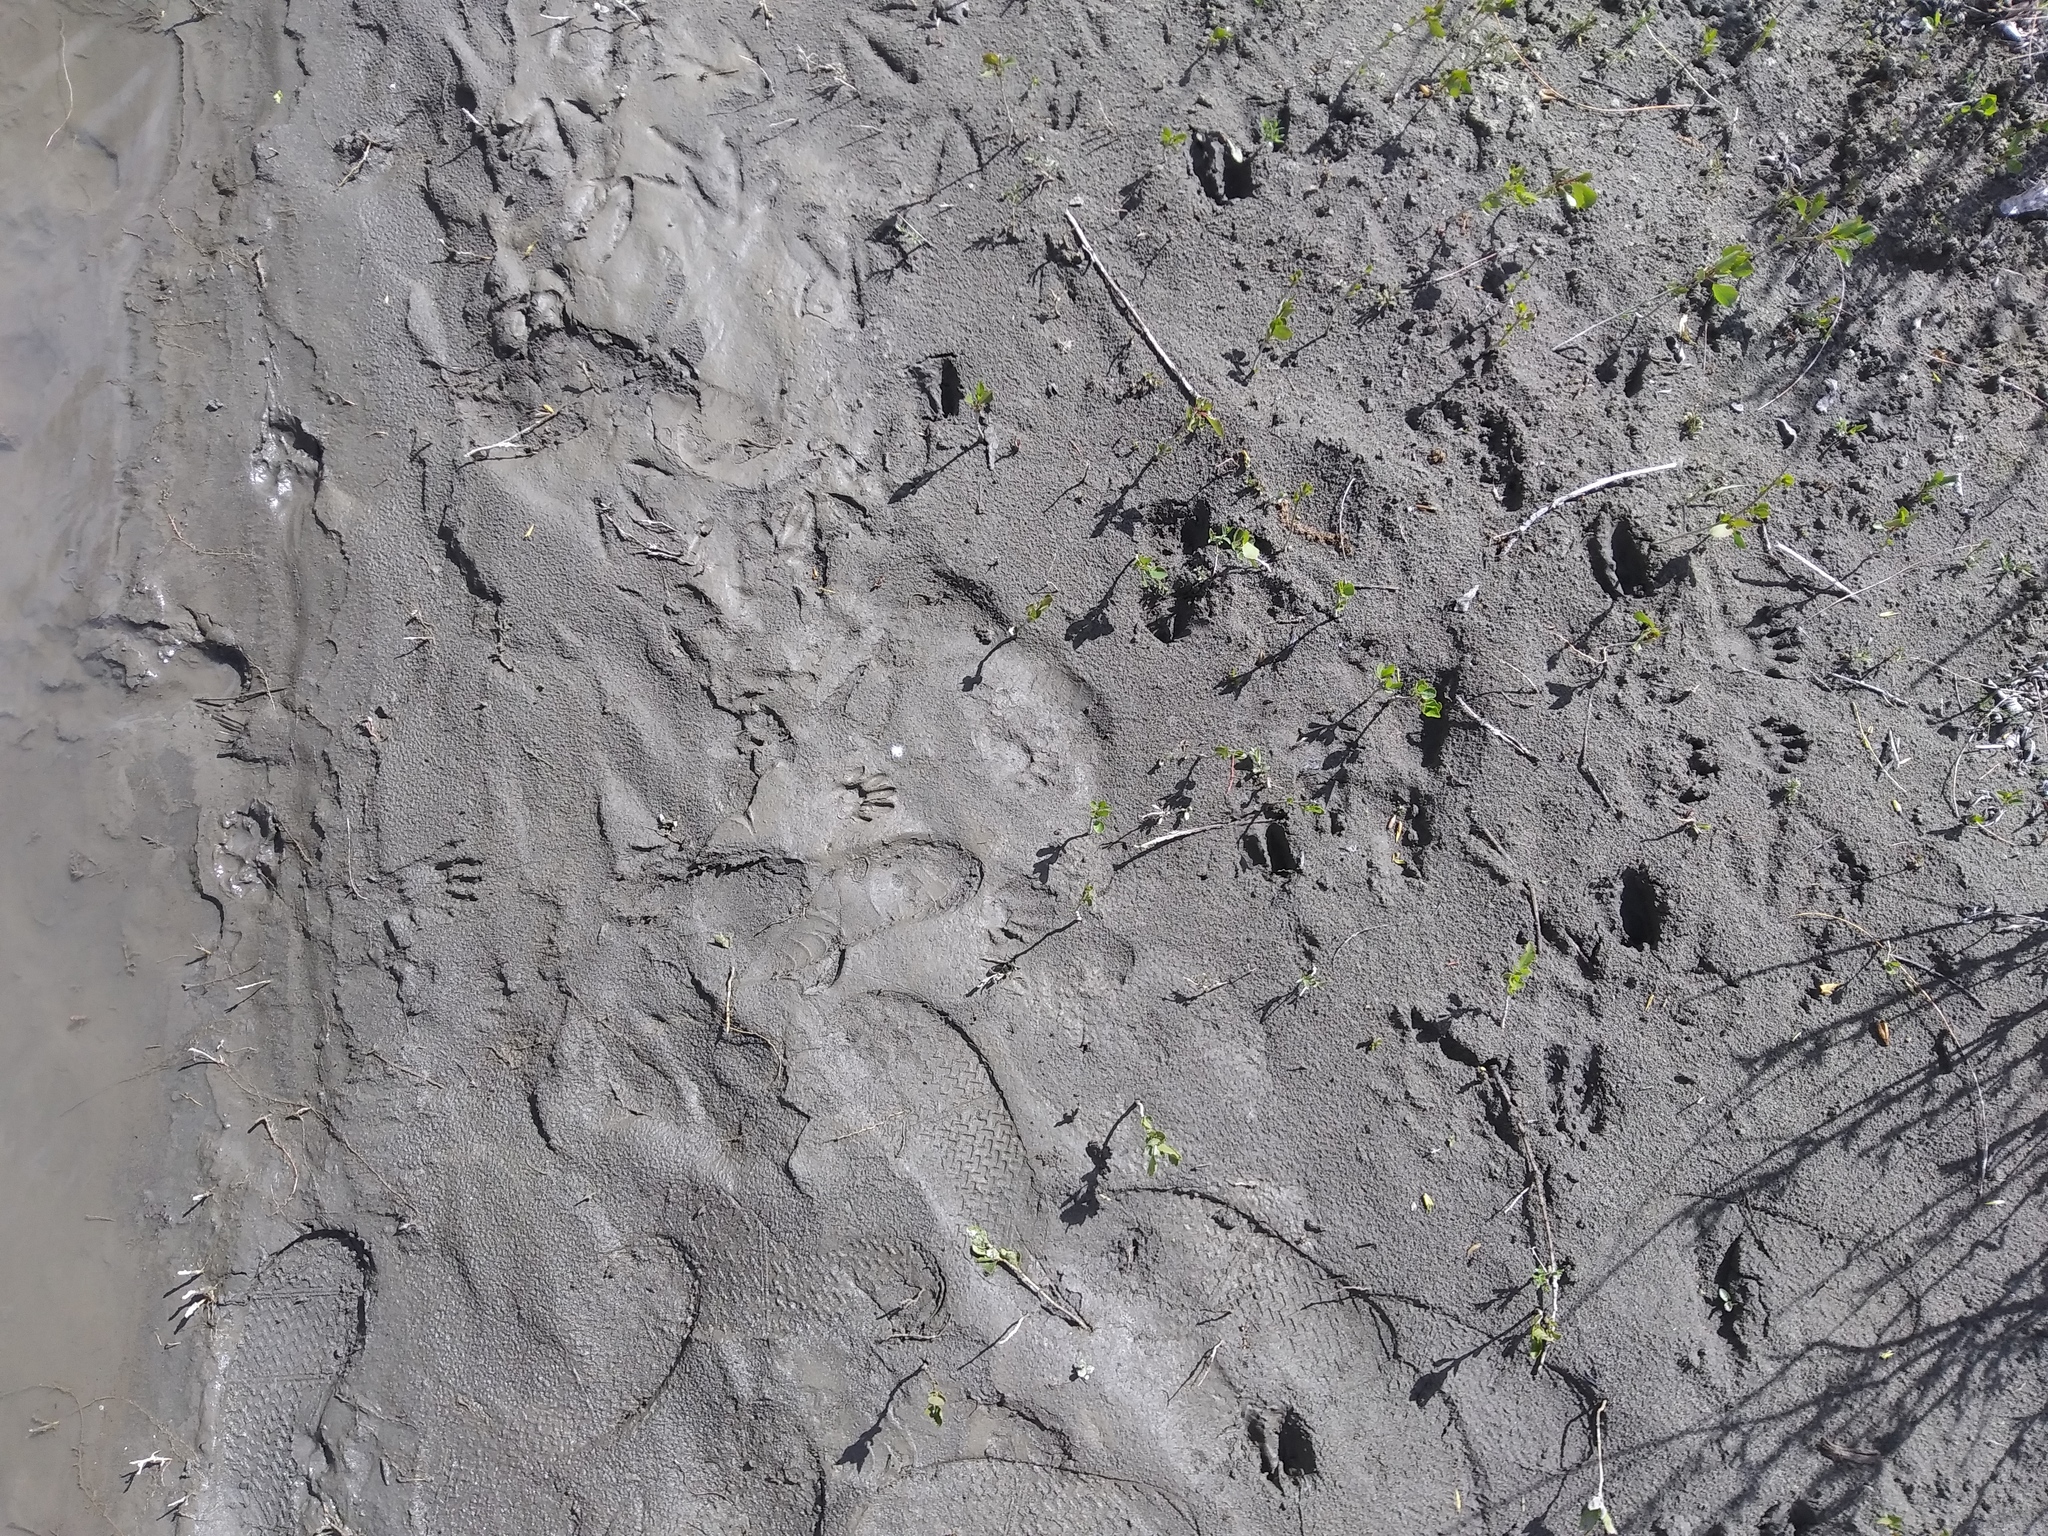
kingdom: Animalia
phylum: Chordata
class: Mammalia
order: Carnivora
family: Procyonidae
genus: Procyon
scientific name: Procyon lotor
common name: Raccoon
